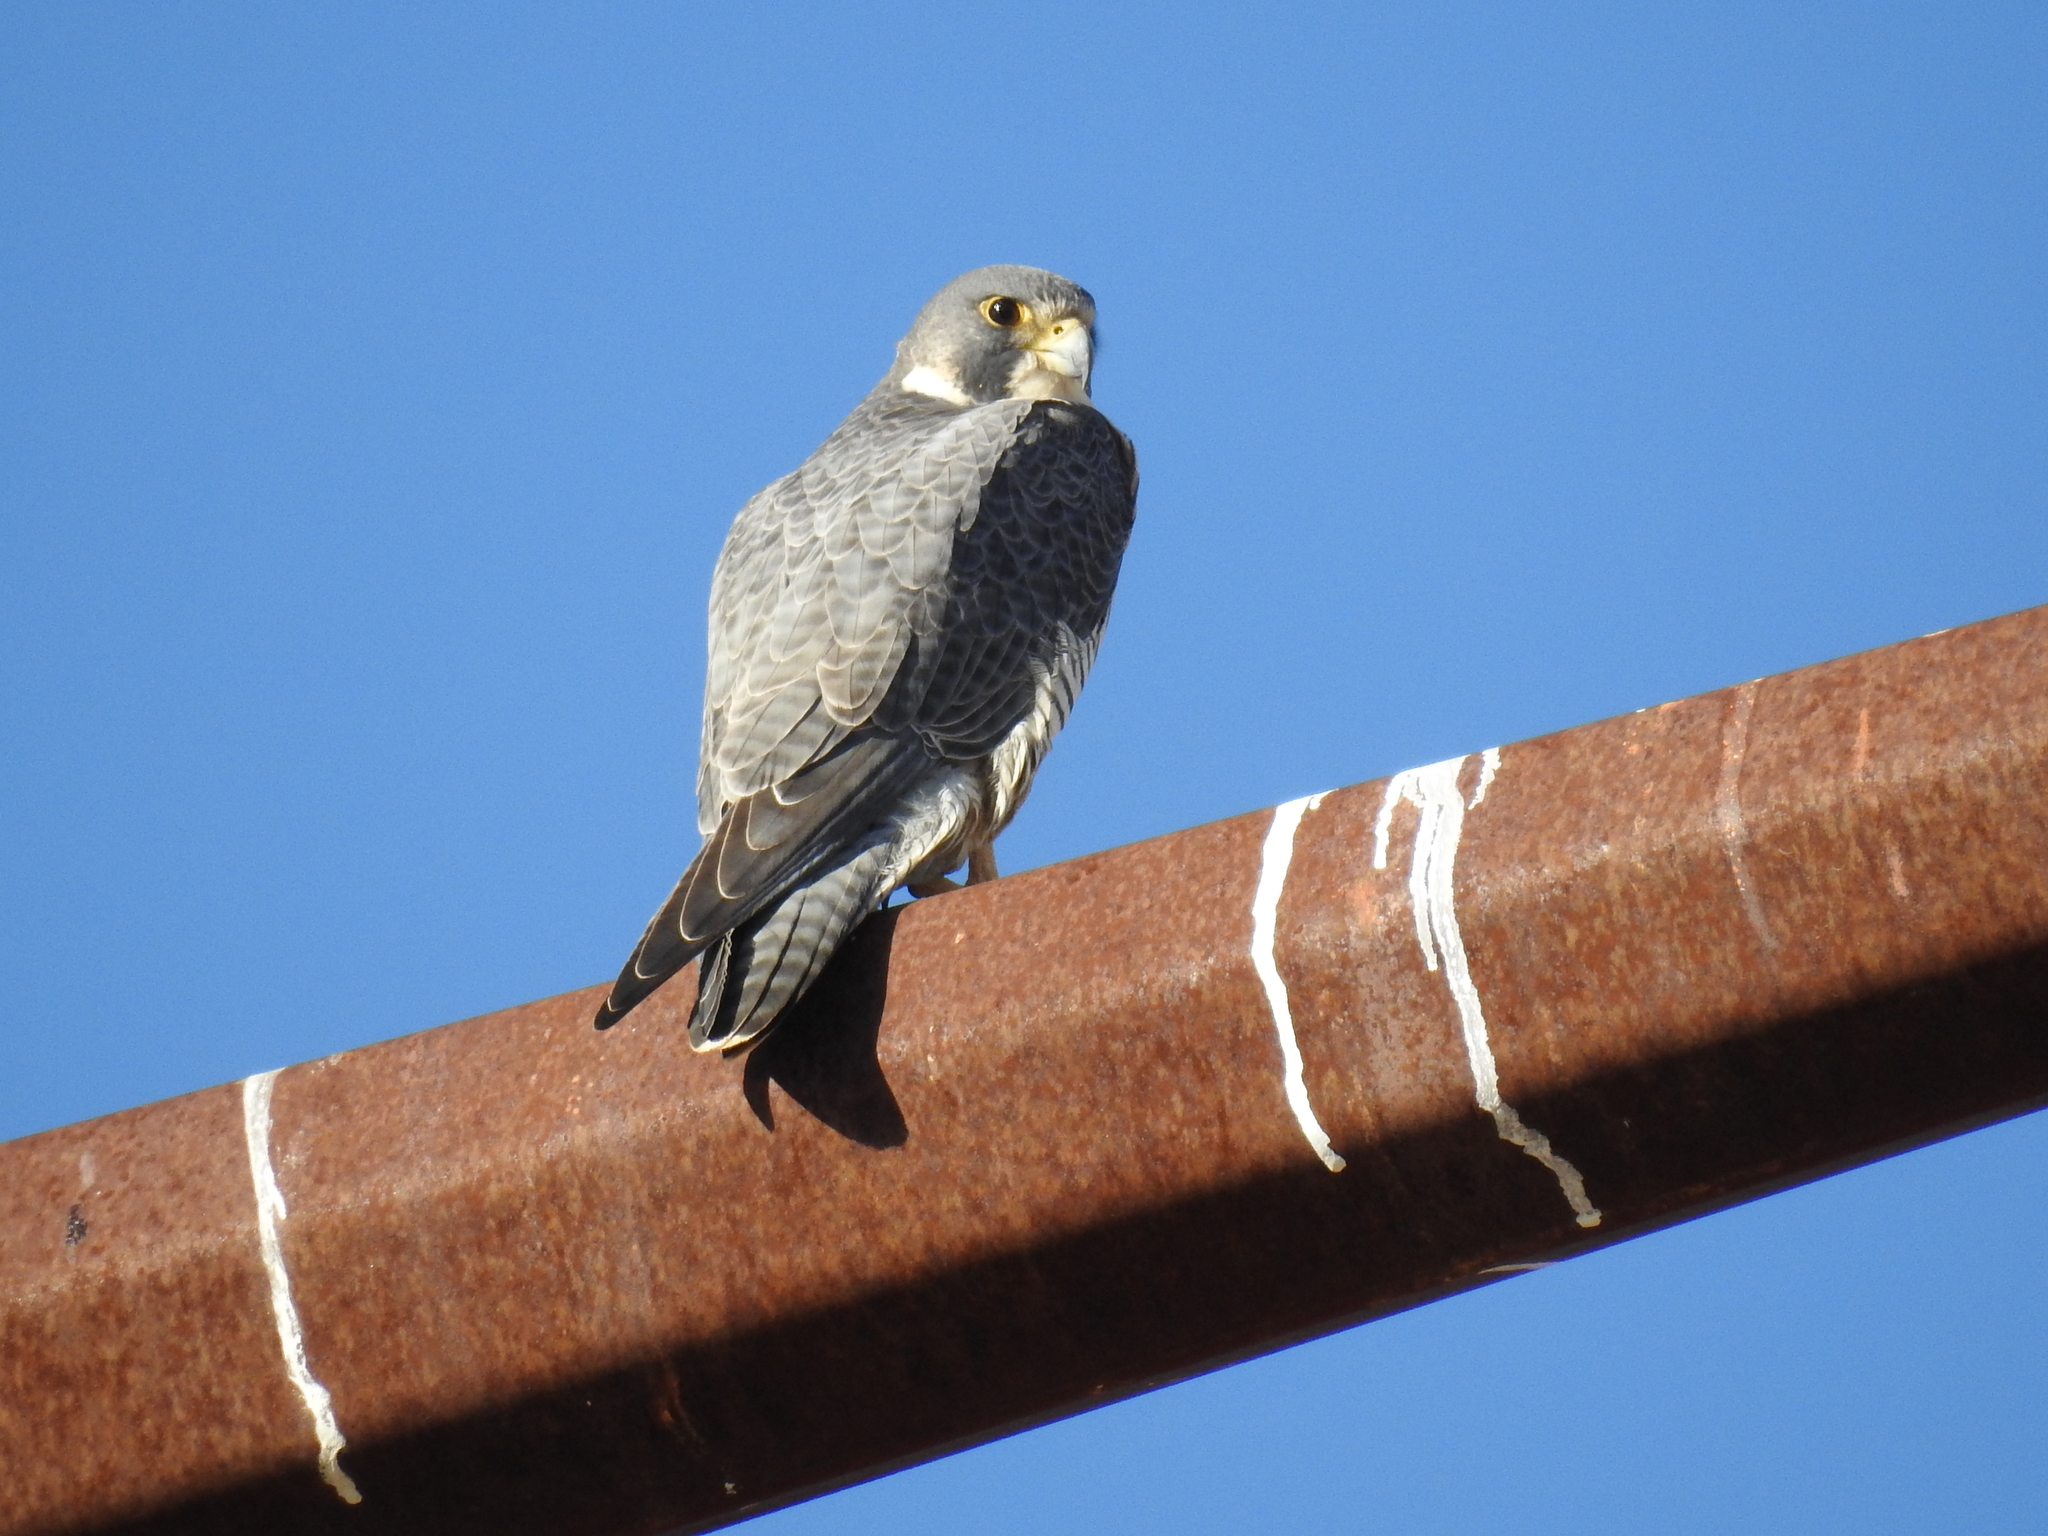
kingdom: Animalia
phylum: Chordata
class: Aves
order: Falconiformes
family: Falconidae
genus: Falco
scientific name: Falco peregrinus
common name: Peregrine falcon
